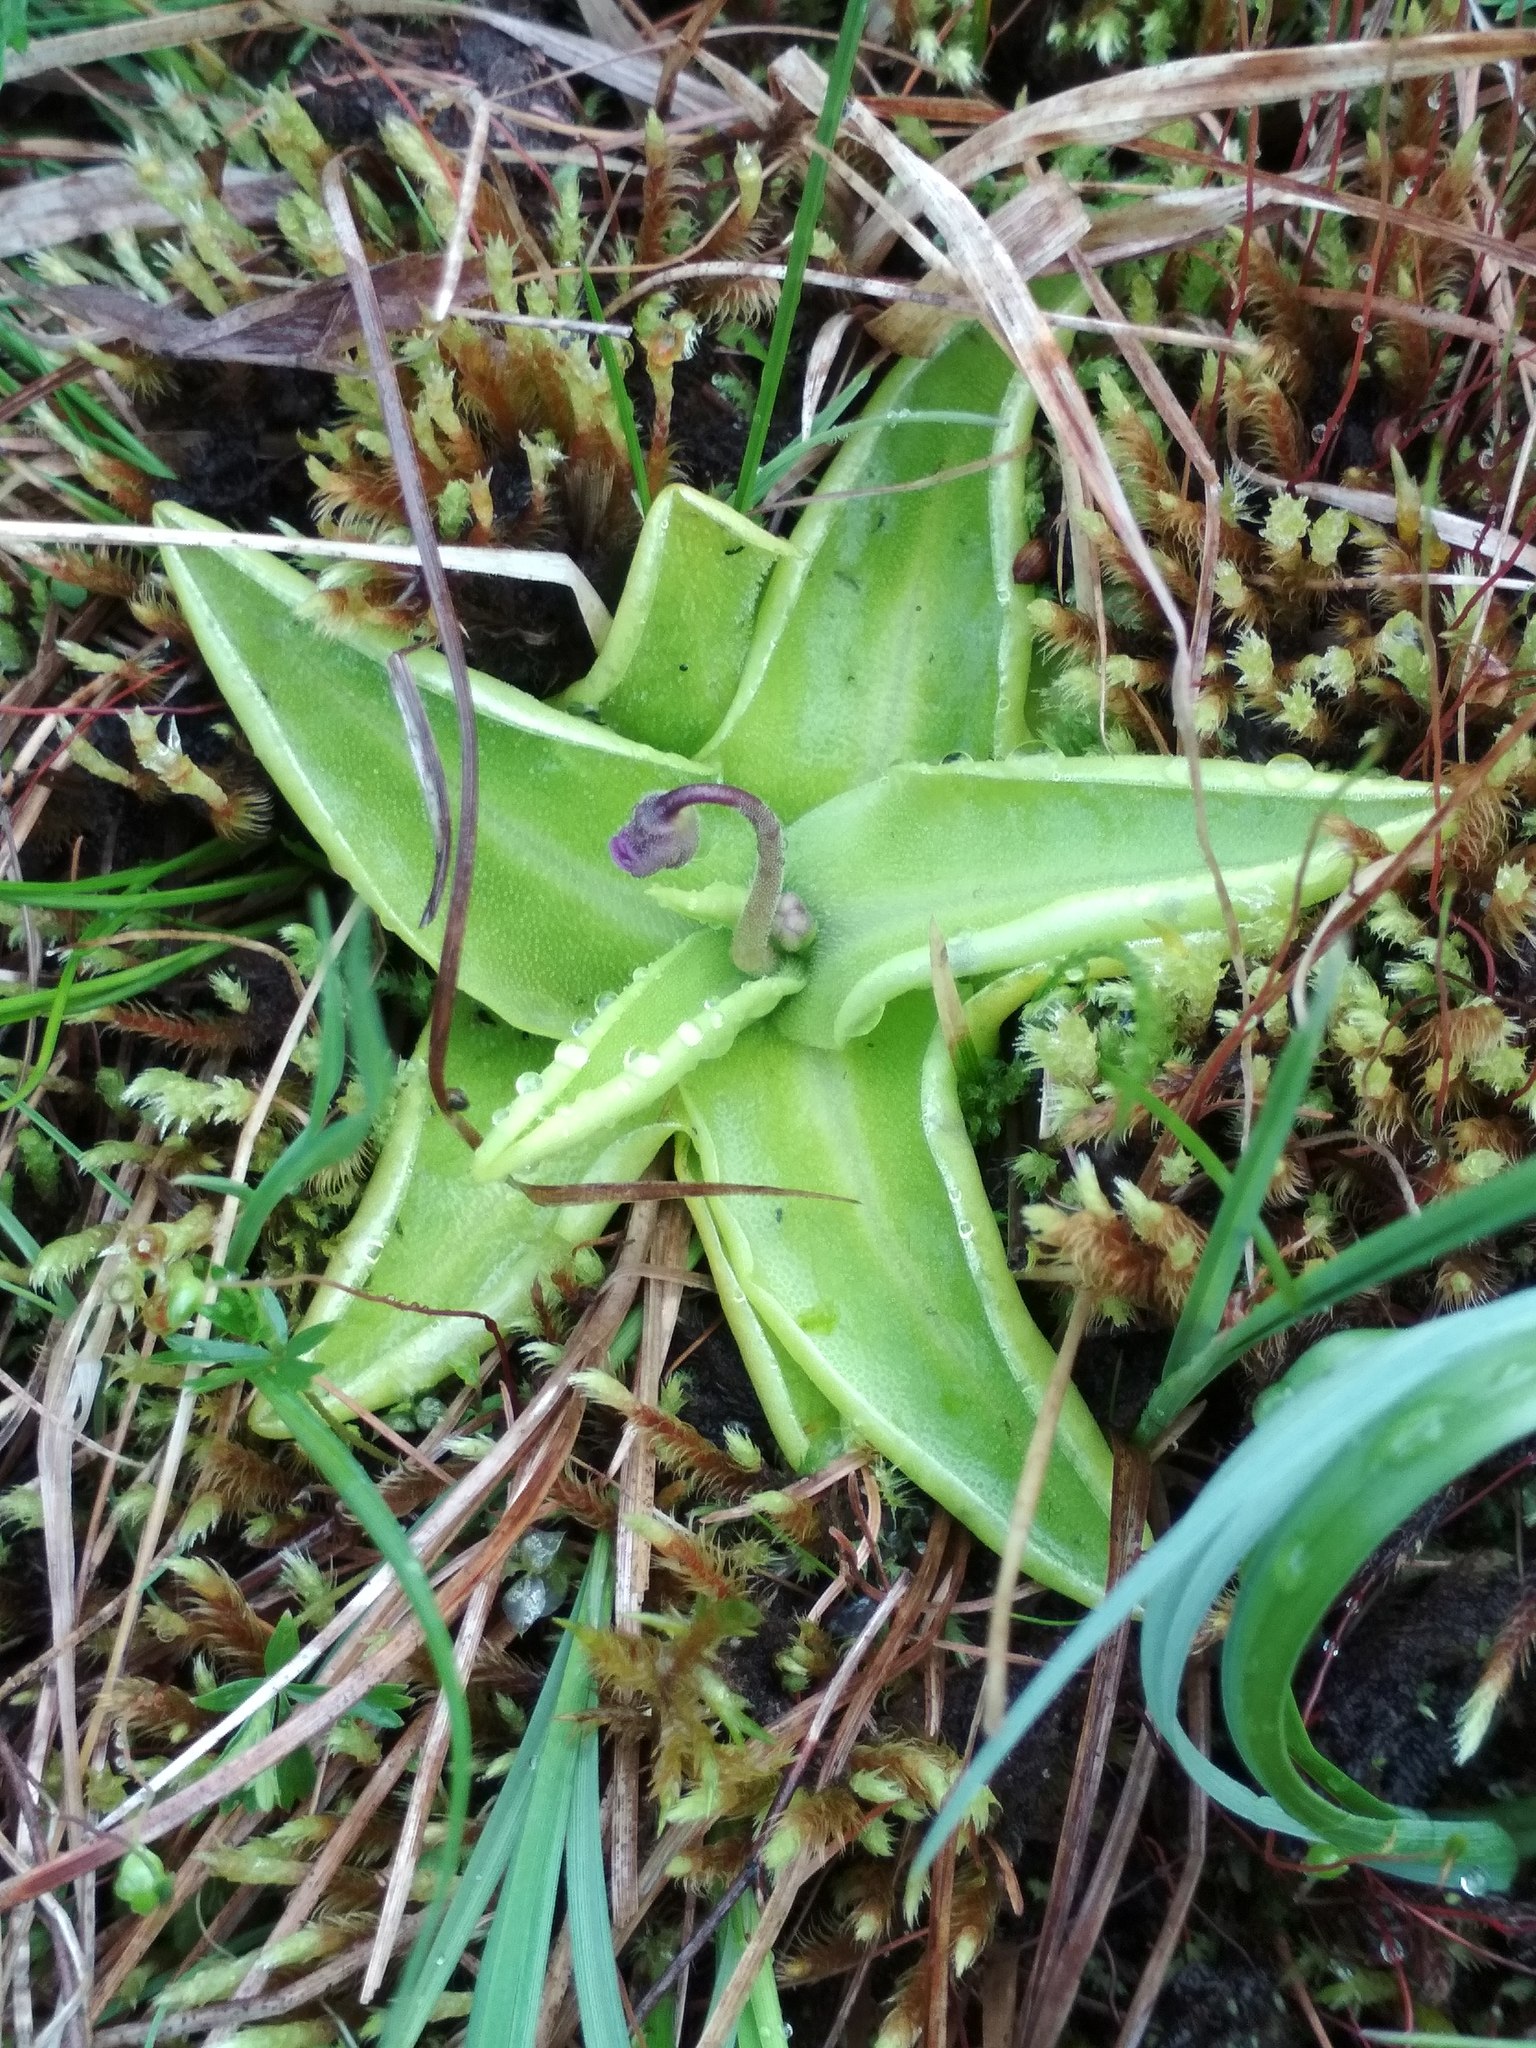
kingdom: Plantae
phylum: Tracheophyta
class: Magnoliopsida
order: Lamiales
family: Lentibulariaceae
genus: Pinguicula
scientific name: Pinguicula vulgaris
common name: Common butterwort
